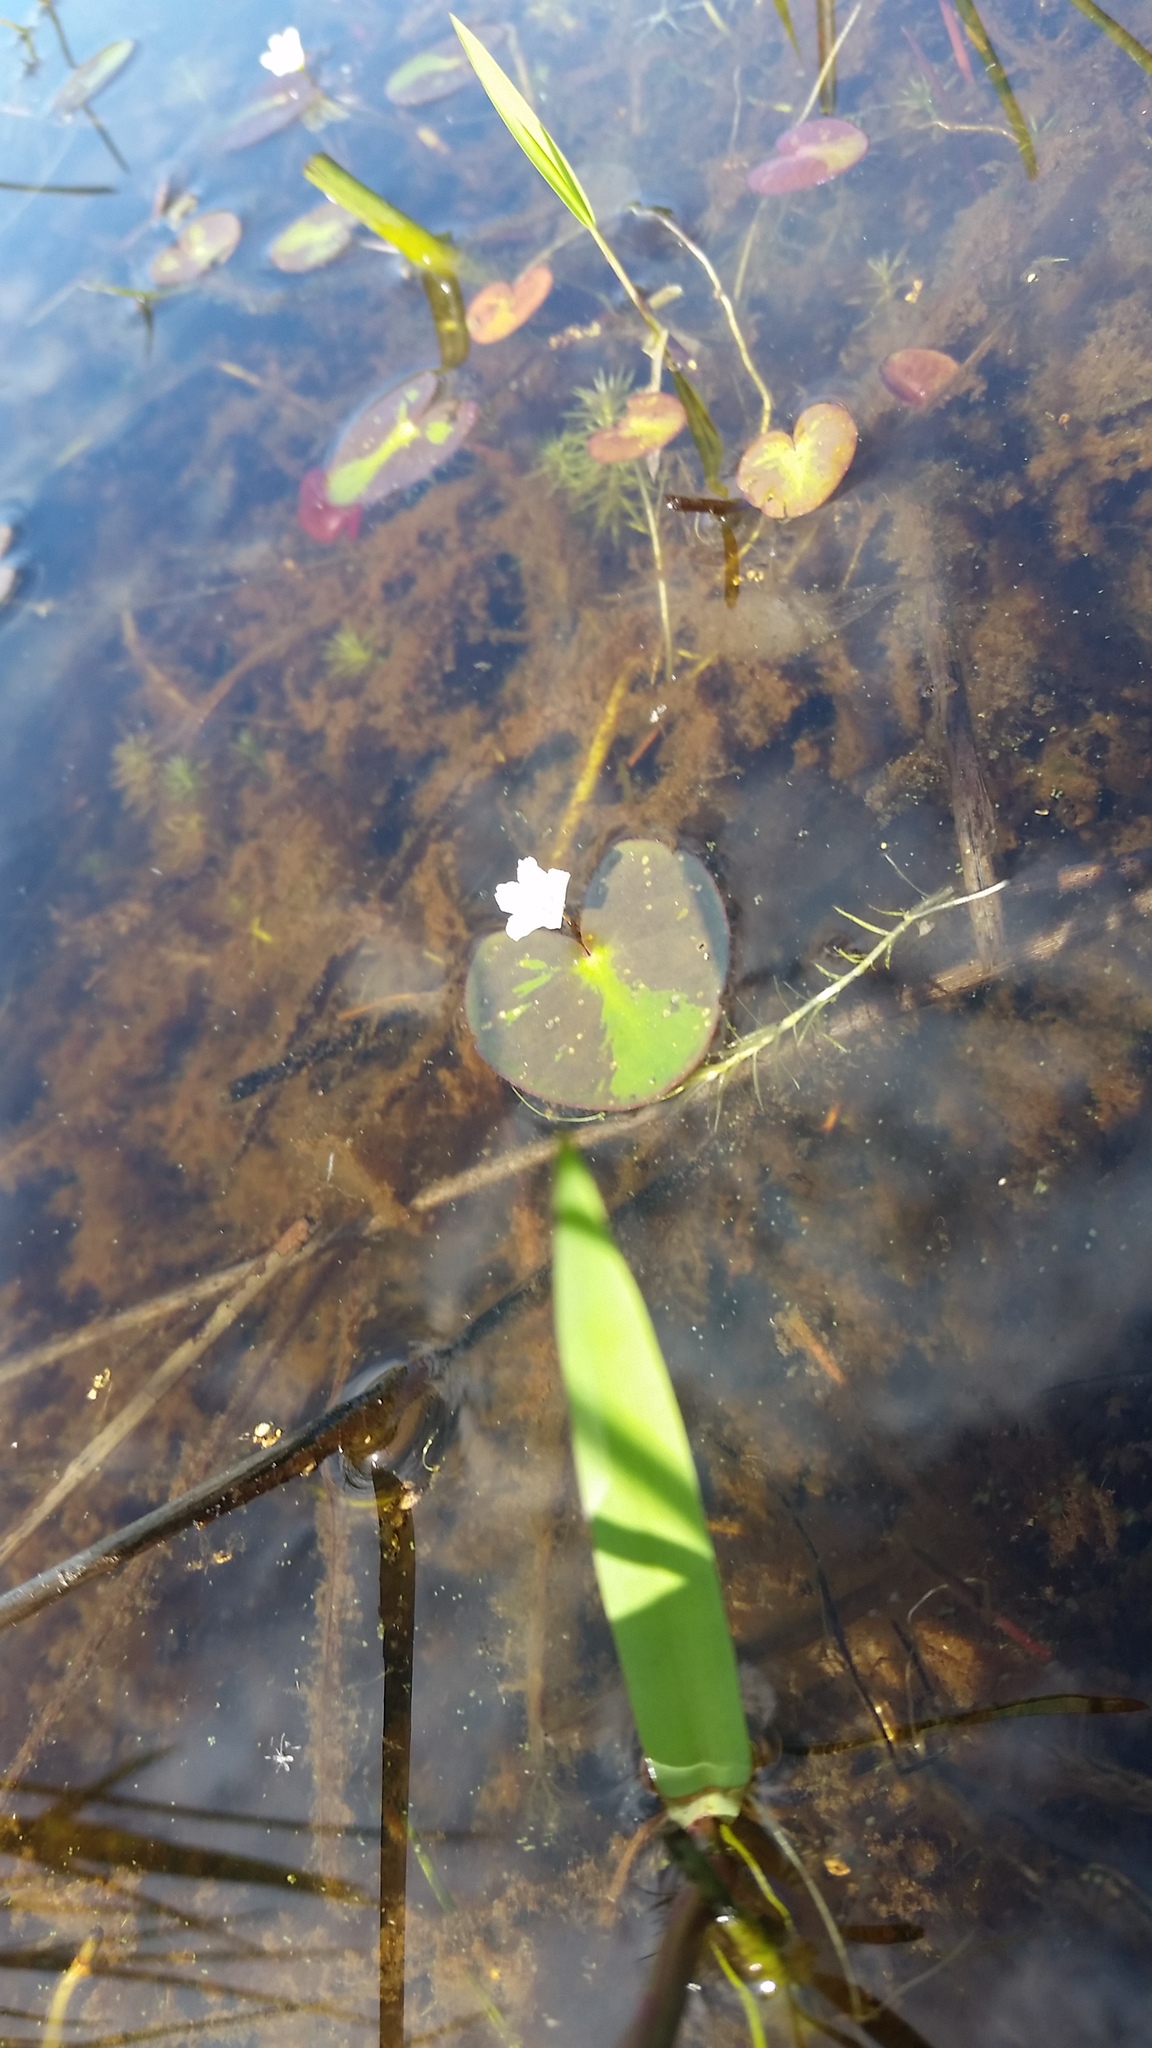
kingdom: Plantae
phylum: Tracheophyta
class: Magnoliopsida
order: Asterales
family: Menyanthaceae
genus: Nymphoides
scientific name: Nymphoides cordata
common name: Eight-angled floatingheart
